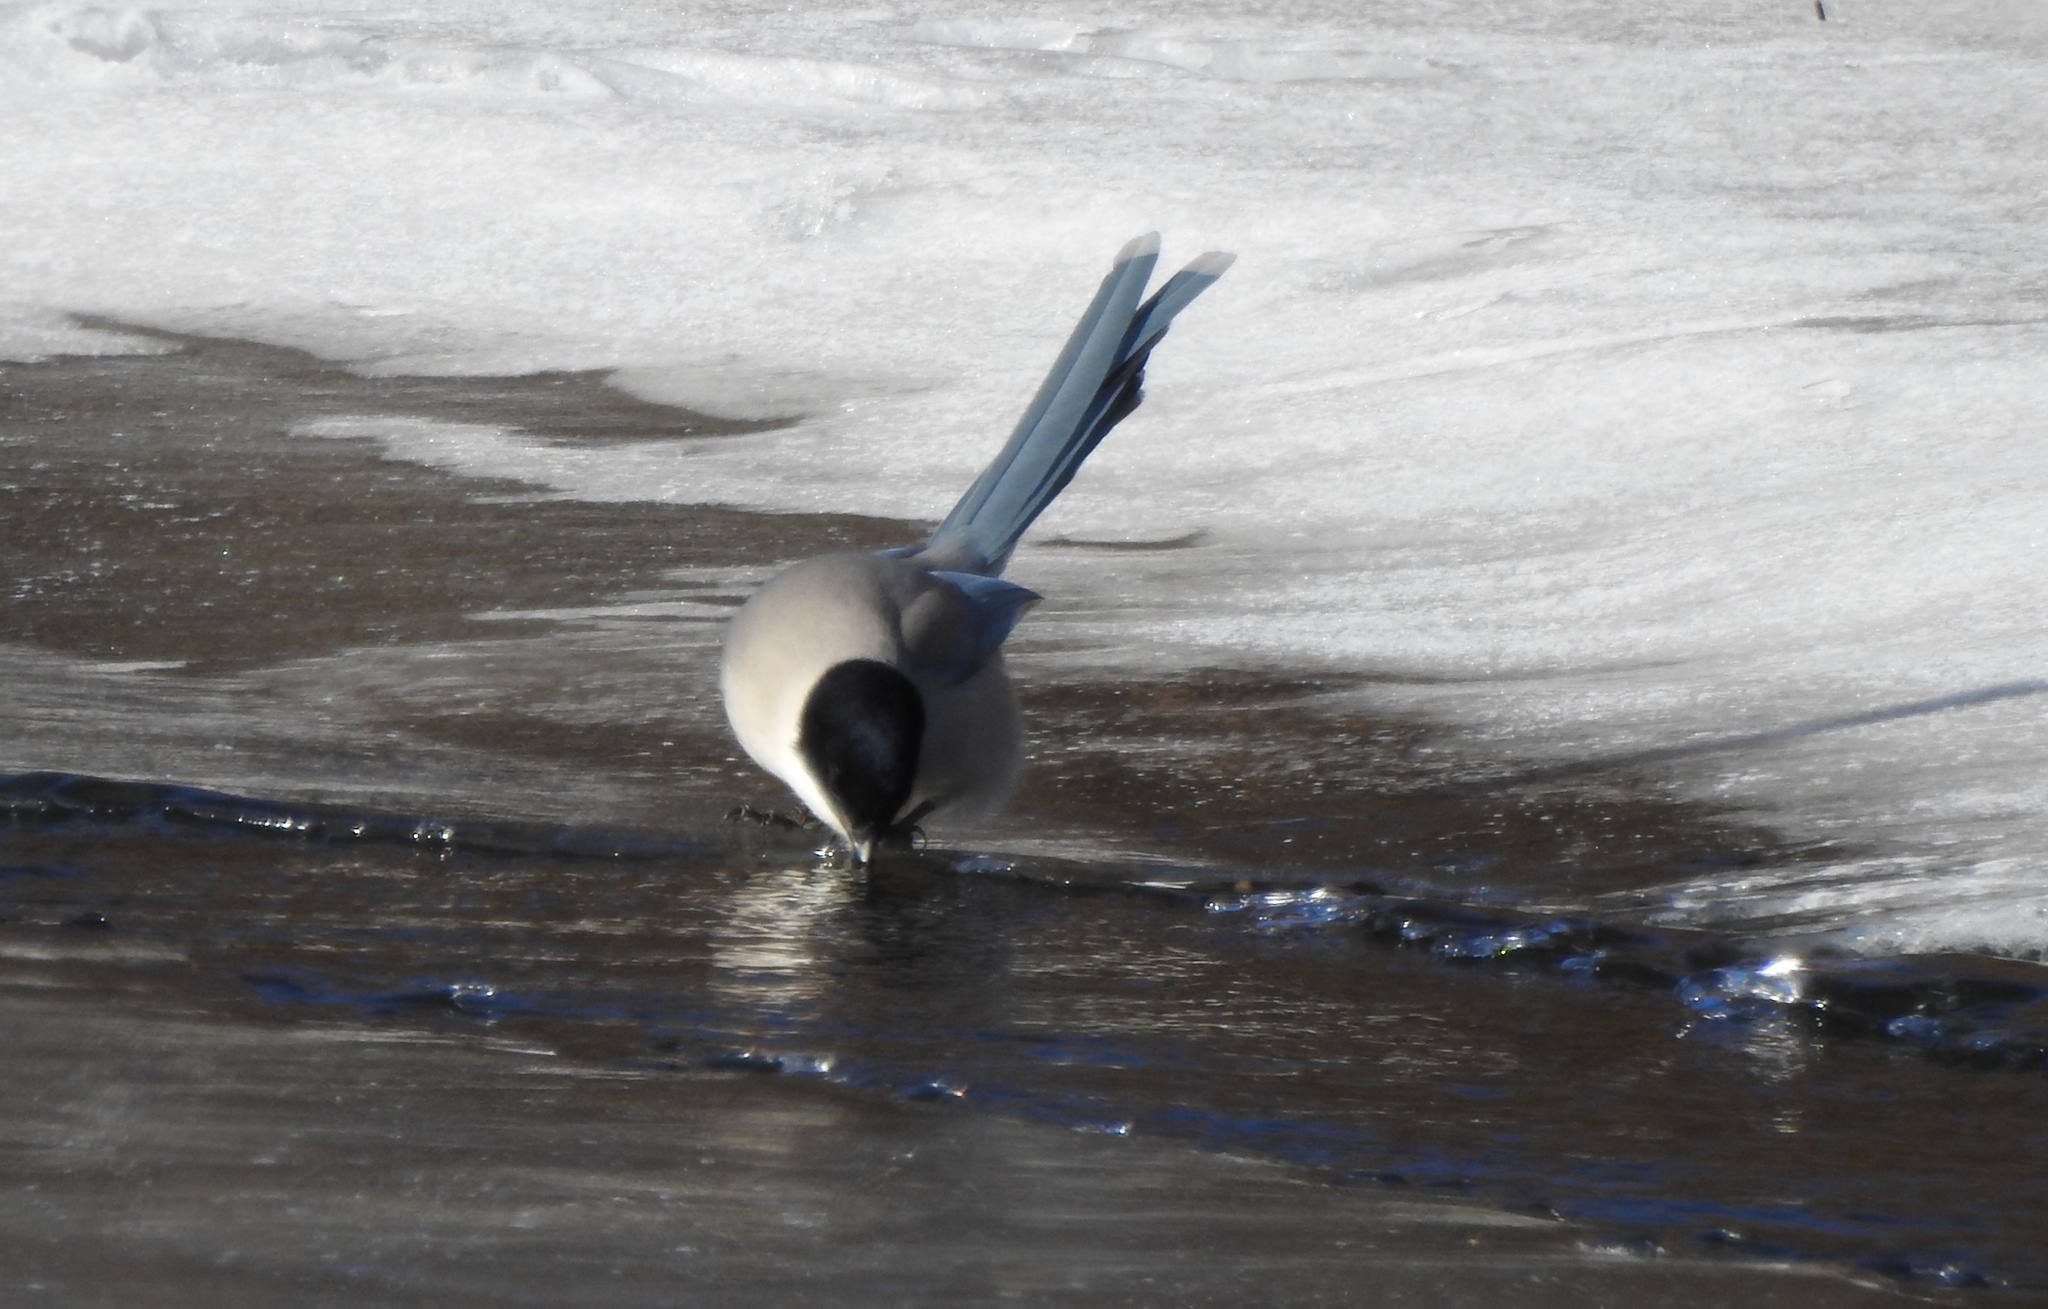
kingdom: Animalia
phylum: Chordata
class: Aves
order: Passeriformes
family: Corvidae
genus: Cyanopica
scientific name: Cyanopica cyanus
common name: Azure-winged magpie
